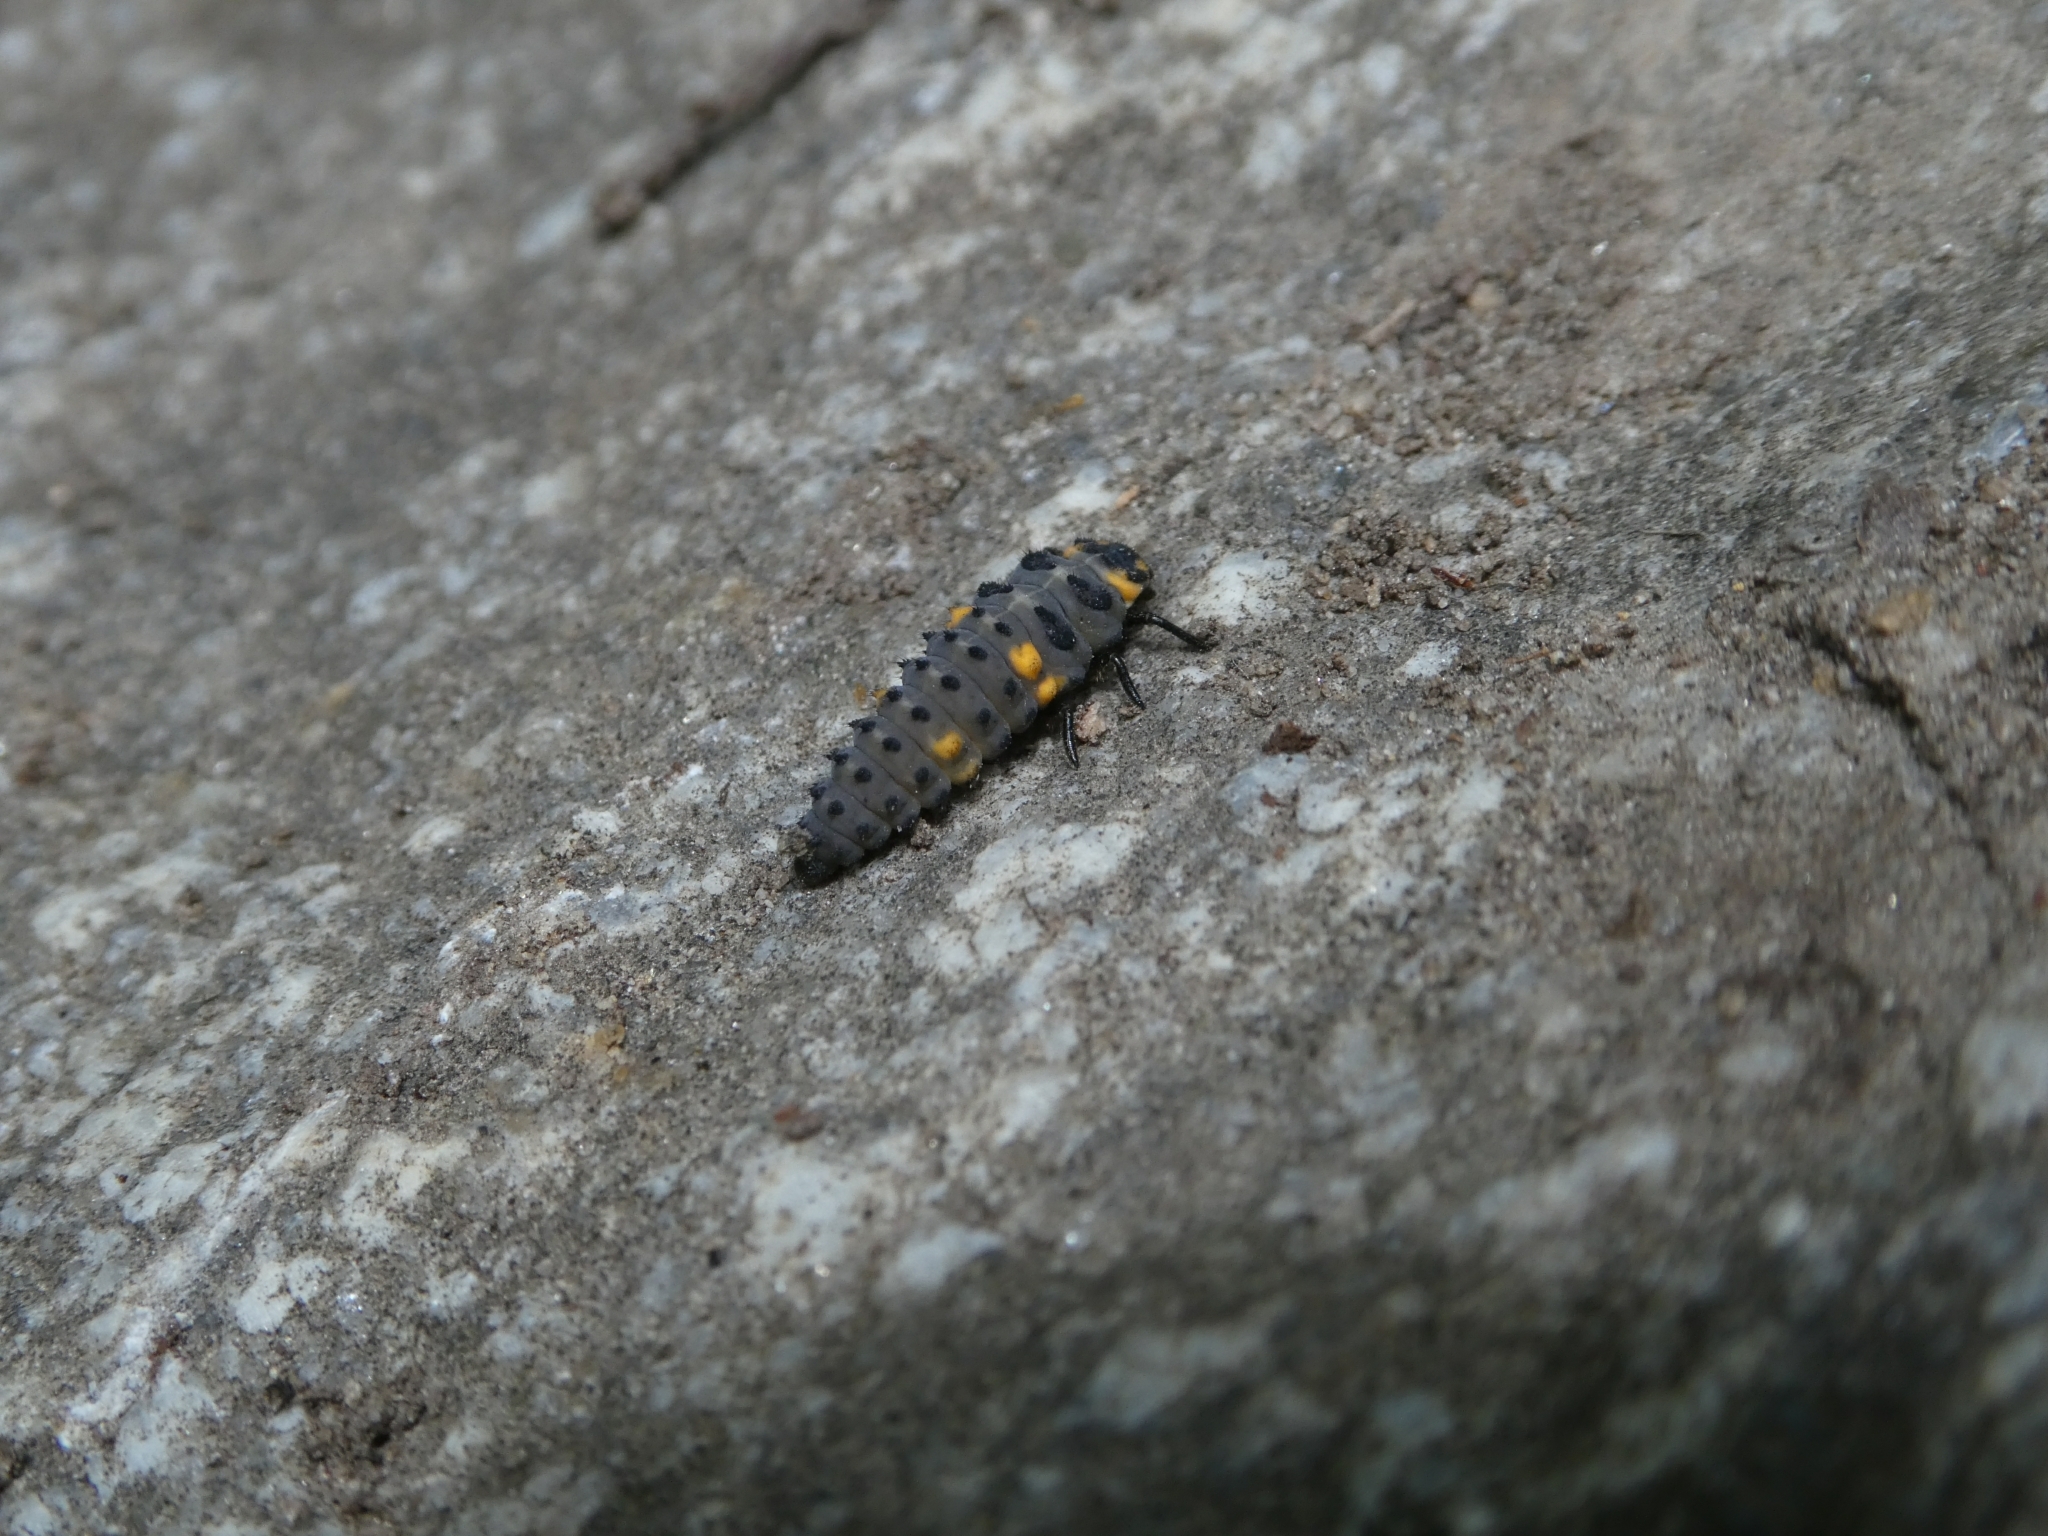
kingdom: Animalia
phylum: Arthropoda
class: Insecta
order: Coleoptera
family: Coccinellidae
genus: Coccinella
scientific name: Coccinella septempunctata
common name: Sevenspotted lady beetle
